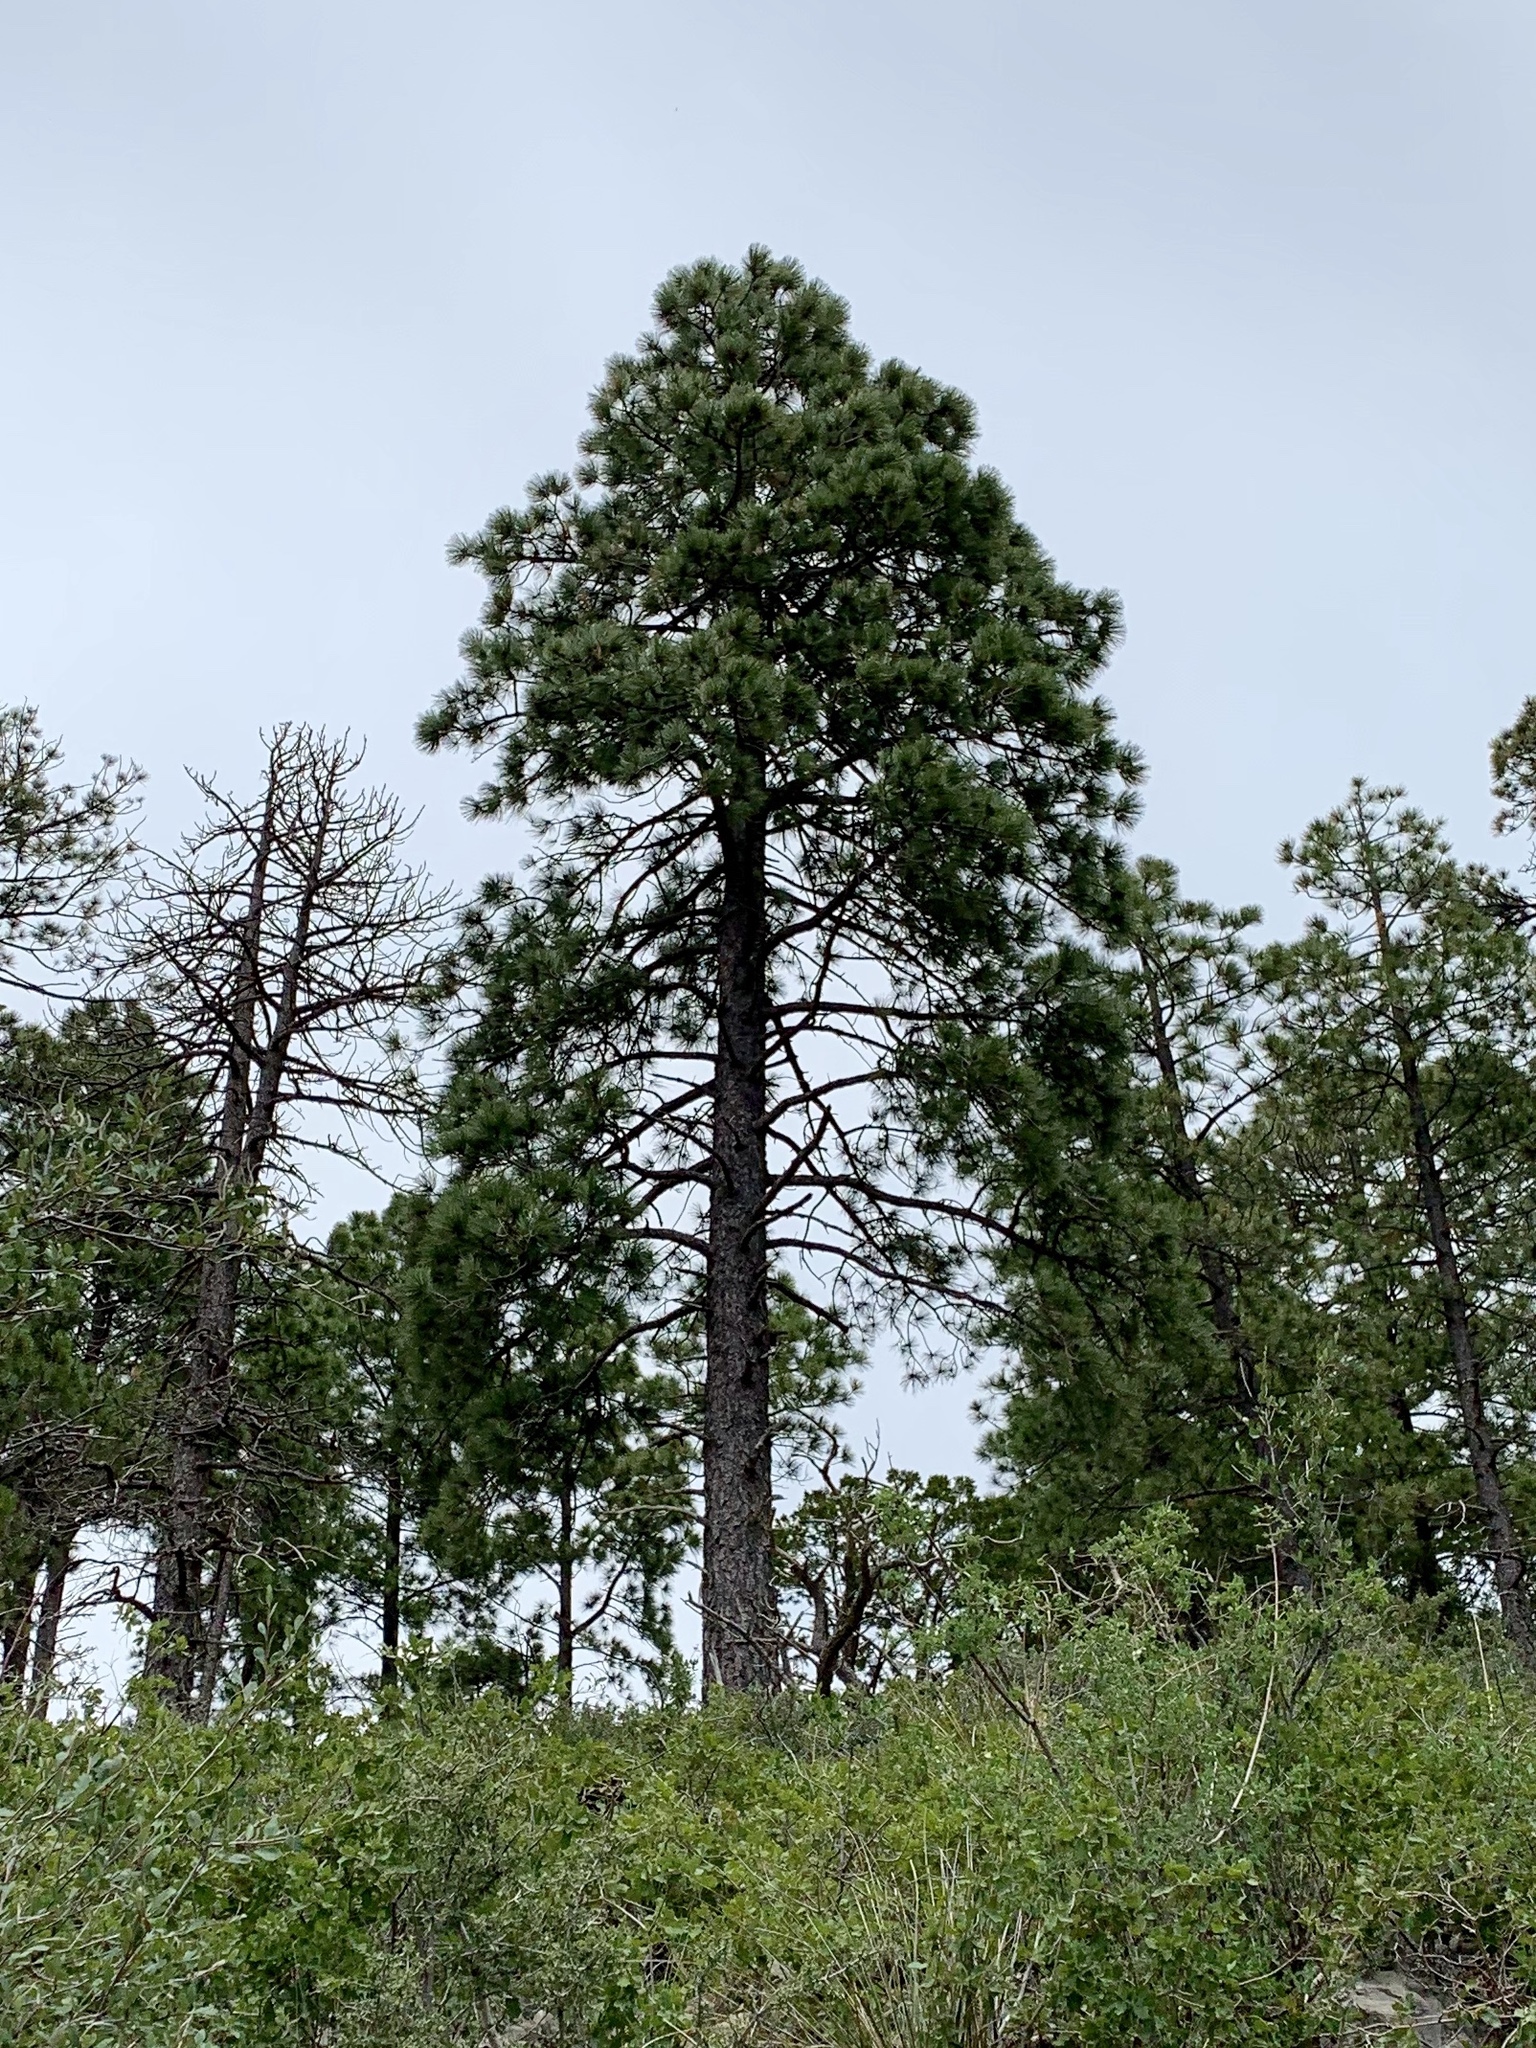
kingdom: Plantae
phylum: Tracheophyta
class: Pinopsida
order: Pinales
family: Pinaceae
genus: Pinus
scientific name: Pinus ponderosa
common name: Western yellow-pine
